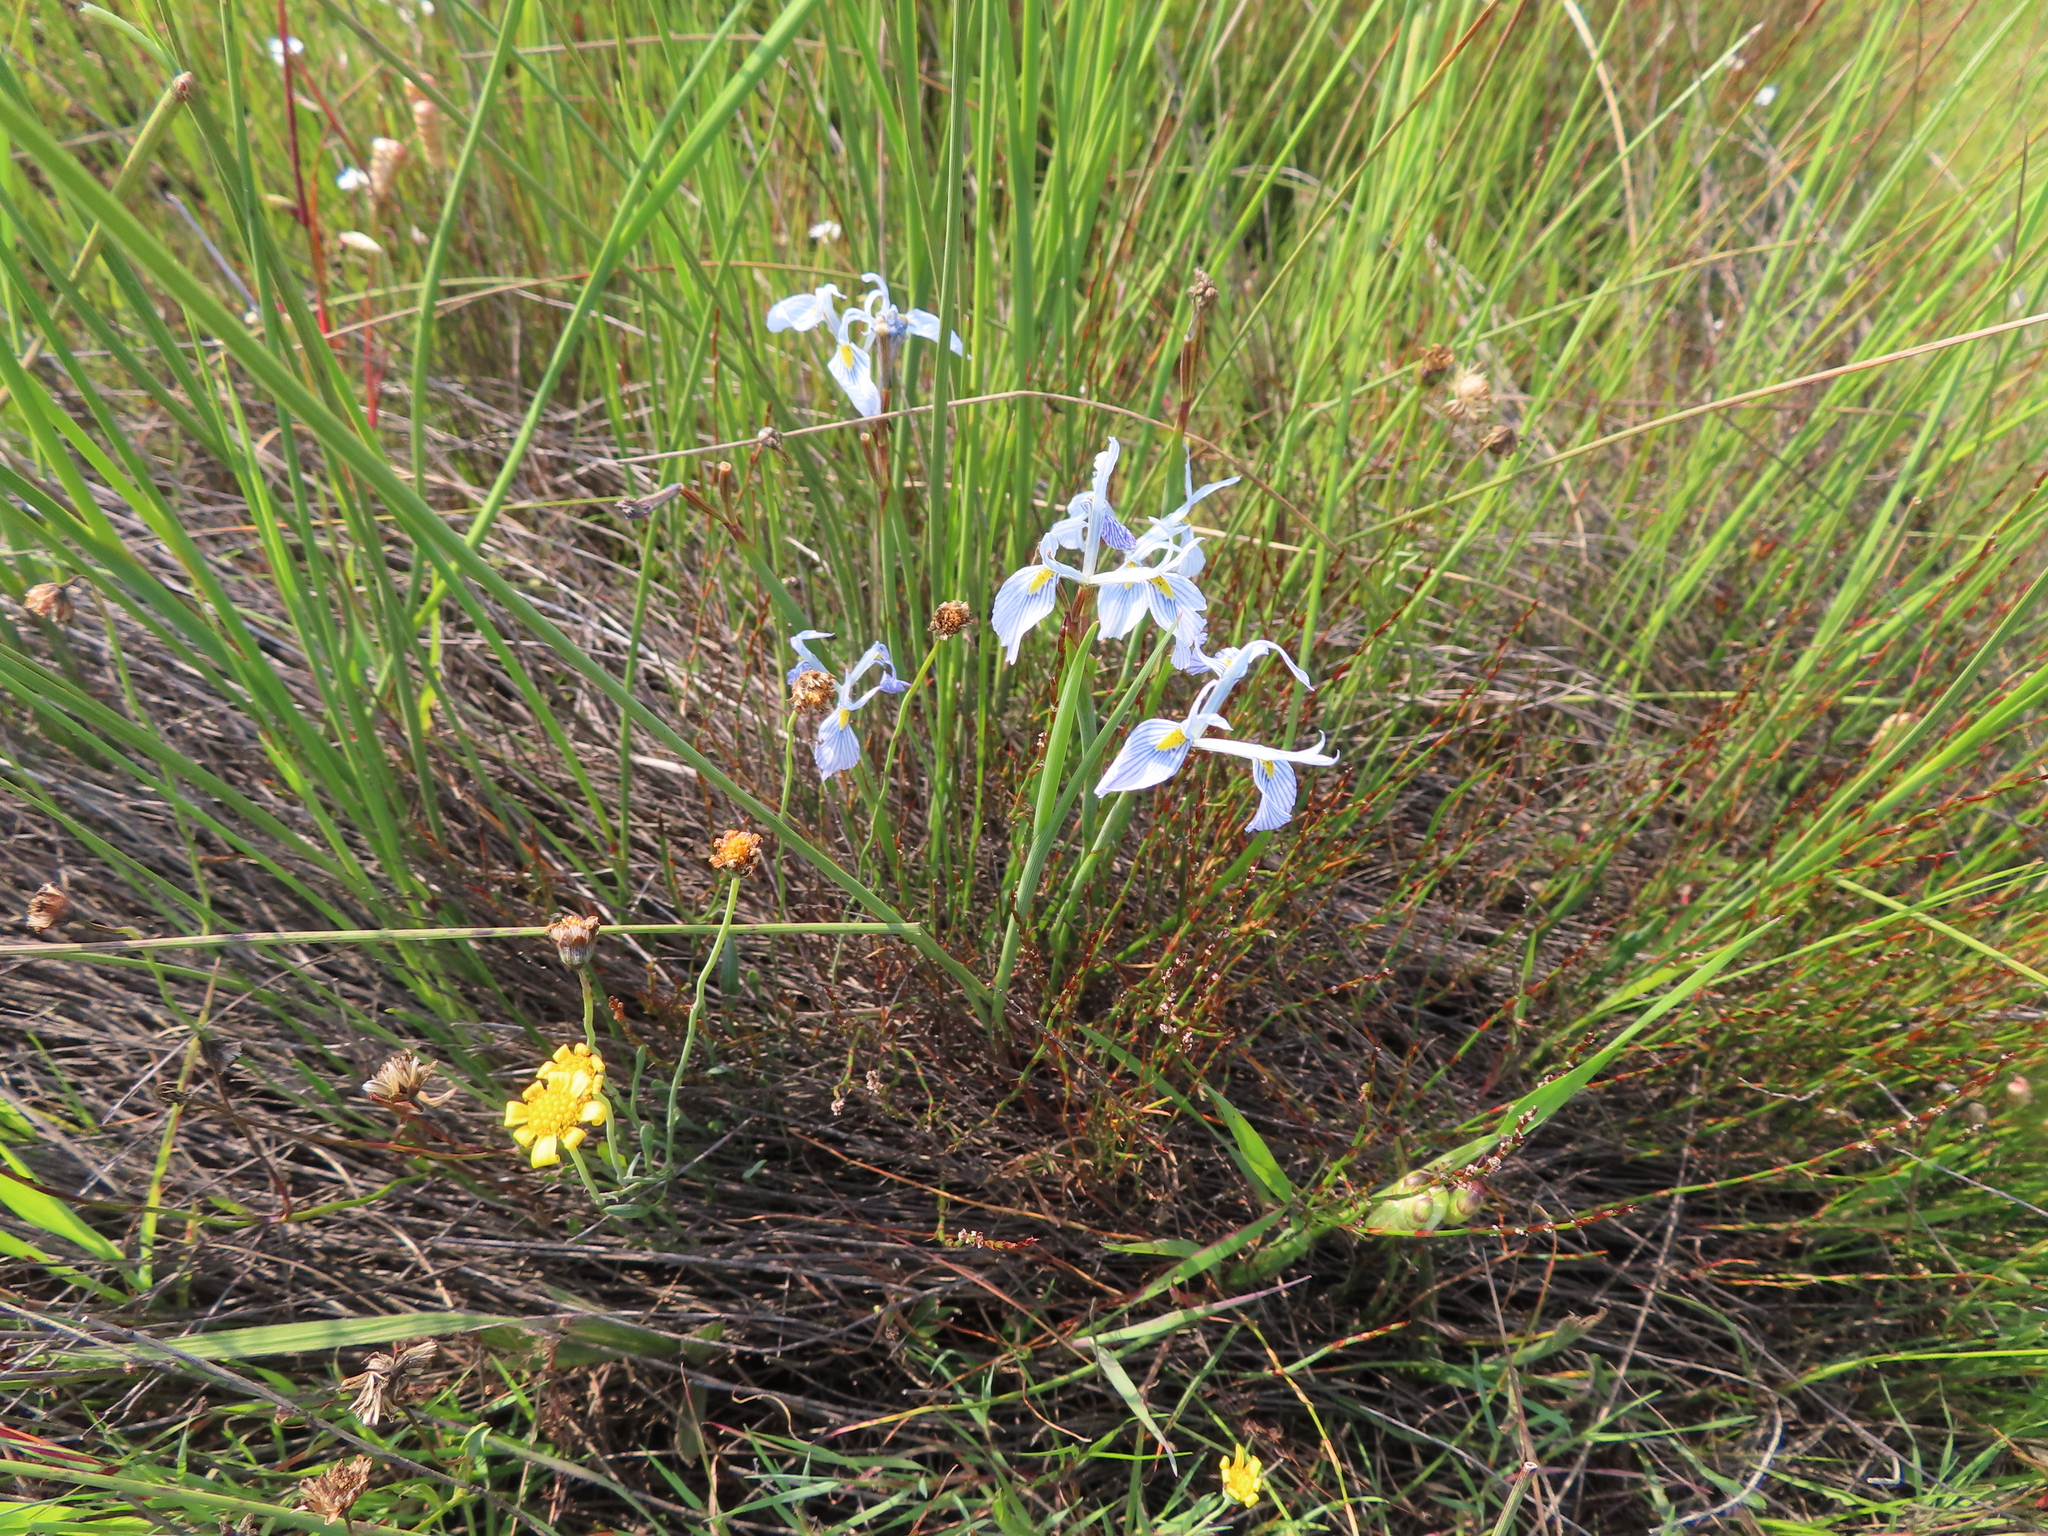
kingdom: Plantae
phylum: Tracheophyta
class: Liliopsida
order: Asparagales
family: Iridaceae
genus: Moraea
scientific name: Moraea ogamana
